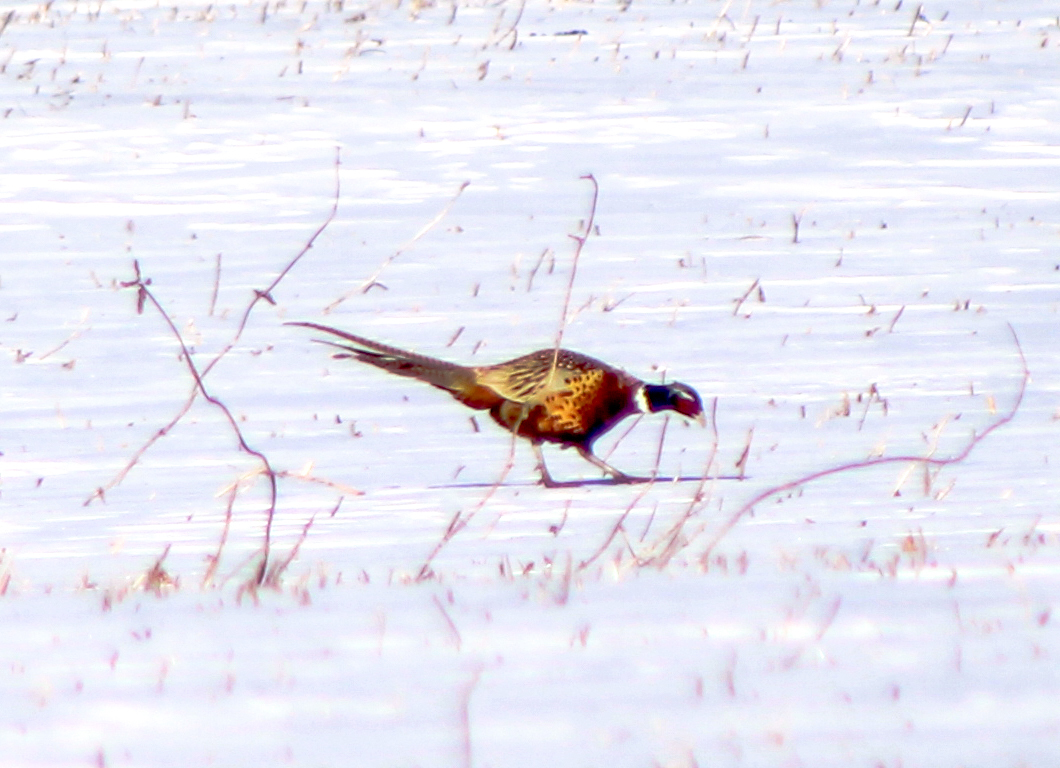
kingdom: Animalia
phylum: Chordata
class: Aves
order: Galliformes
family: Phasianidae
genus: Phasianus
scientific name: Phasianus colchicus
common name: Common pheasant
